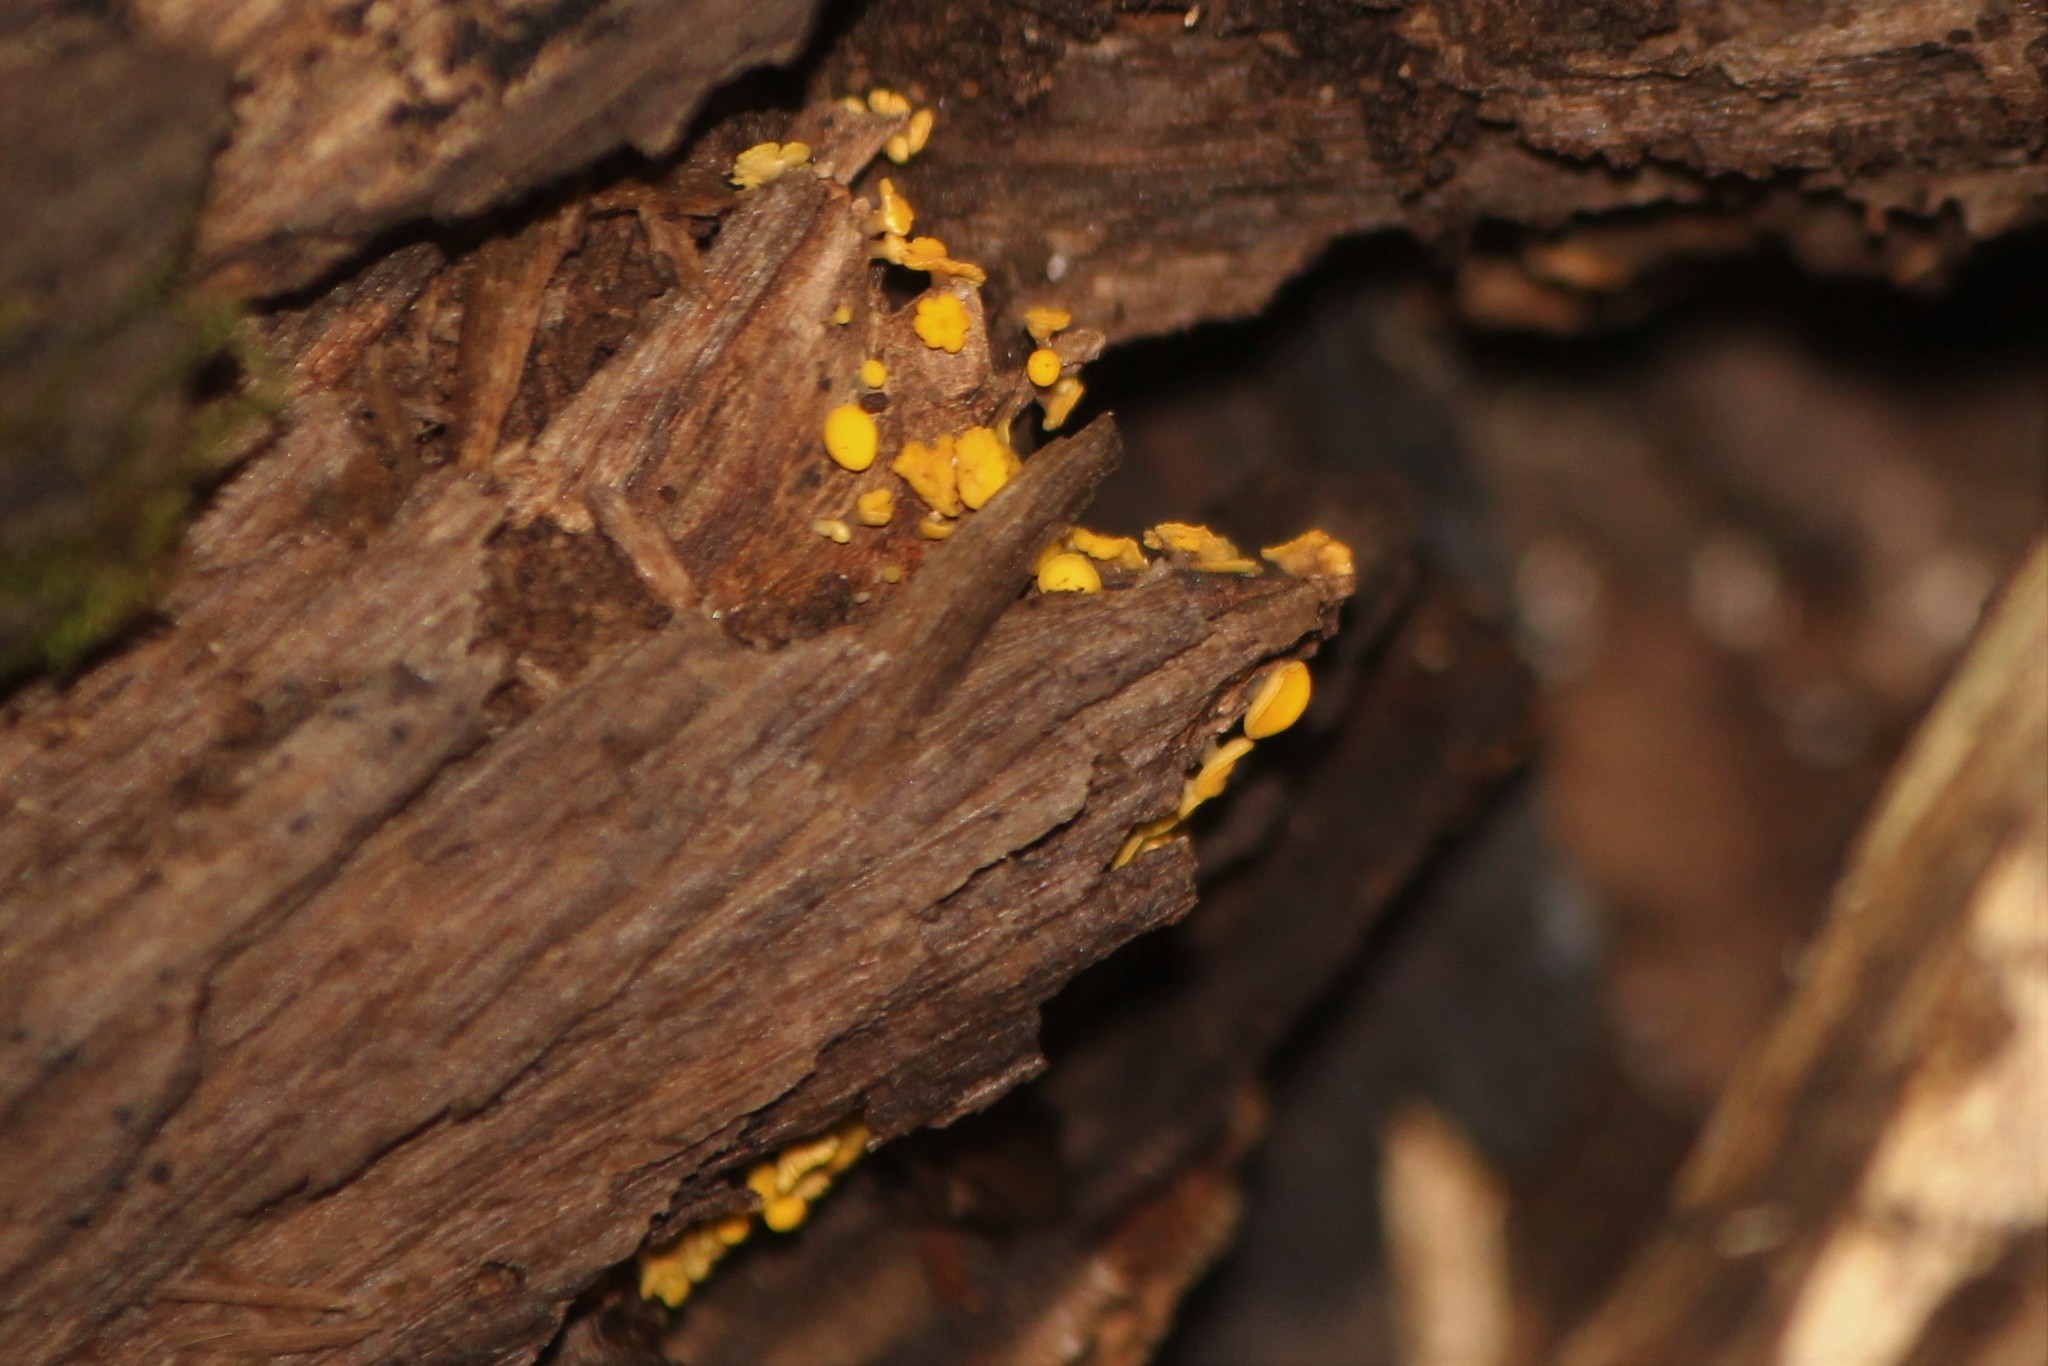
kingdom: Fungi
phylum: Ascomycota
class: Leotiomycetes
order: Helotiales
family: Pezizellaceae
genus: Calycina
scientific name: Calycina citrina
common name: Yellow fairy cups
